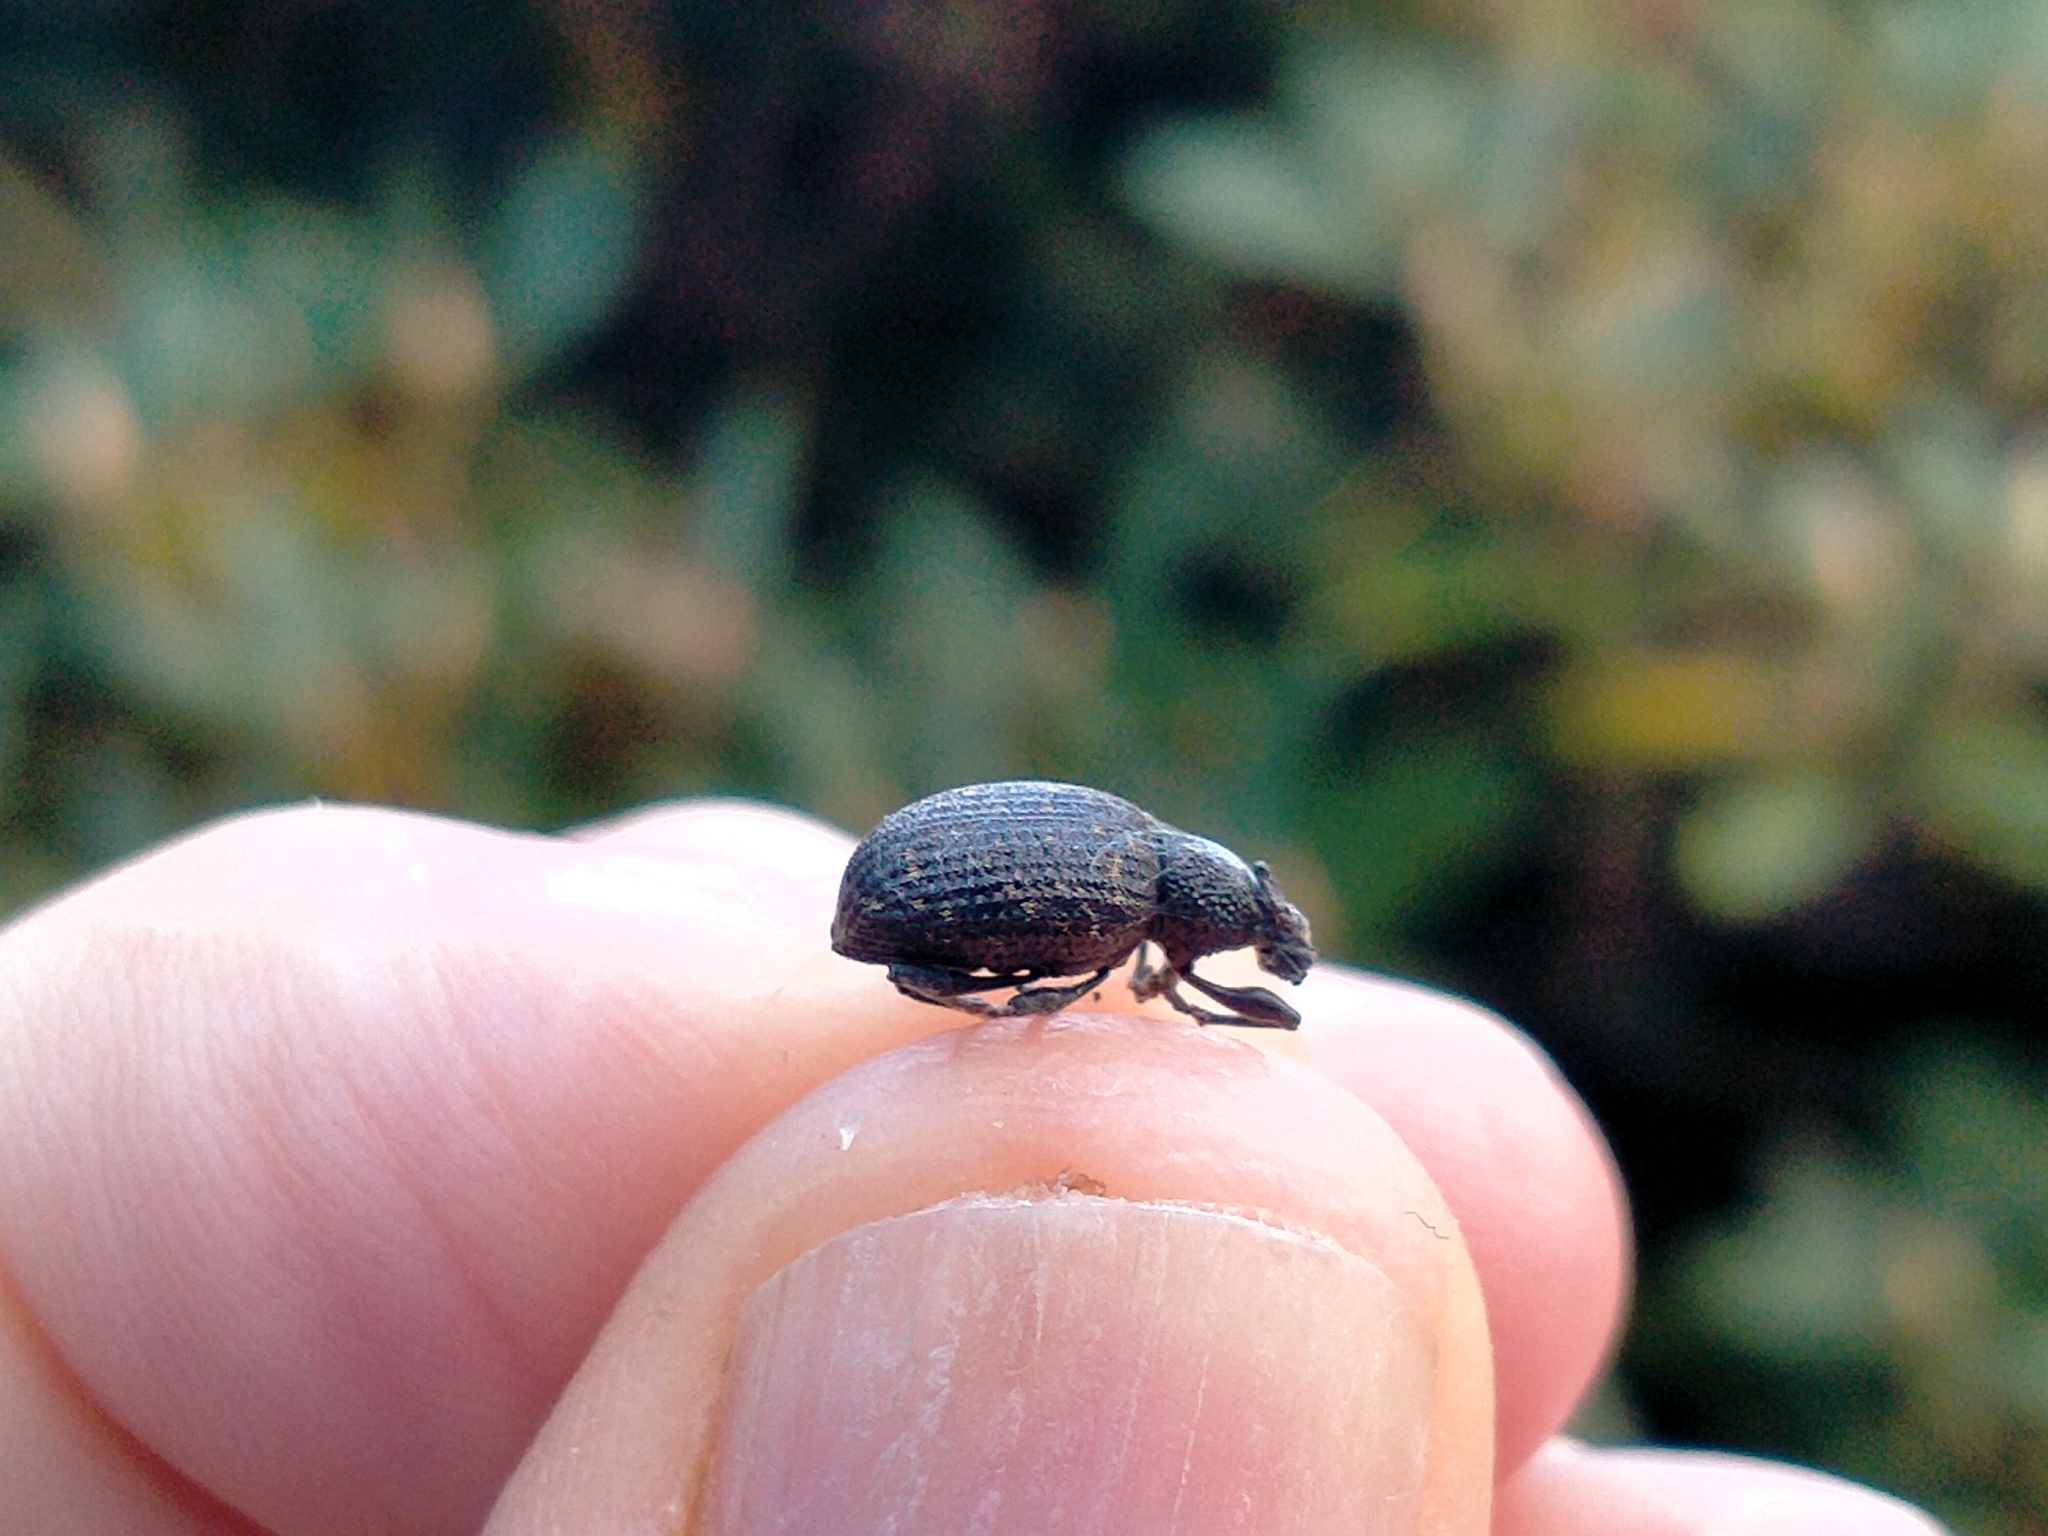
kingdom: Animalia
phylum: Arthropoda
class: Insecta
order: Coleoptera
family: Curculionidae
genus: Otiorhynchus
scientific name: Otiorhynchus sulcatus
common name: Black vine weevil
